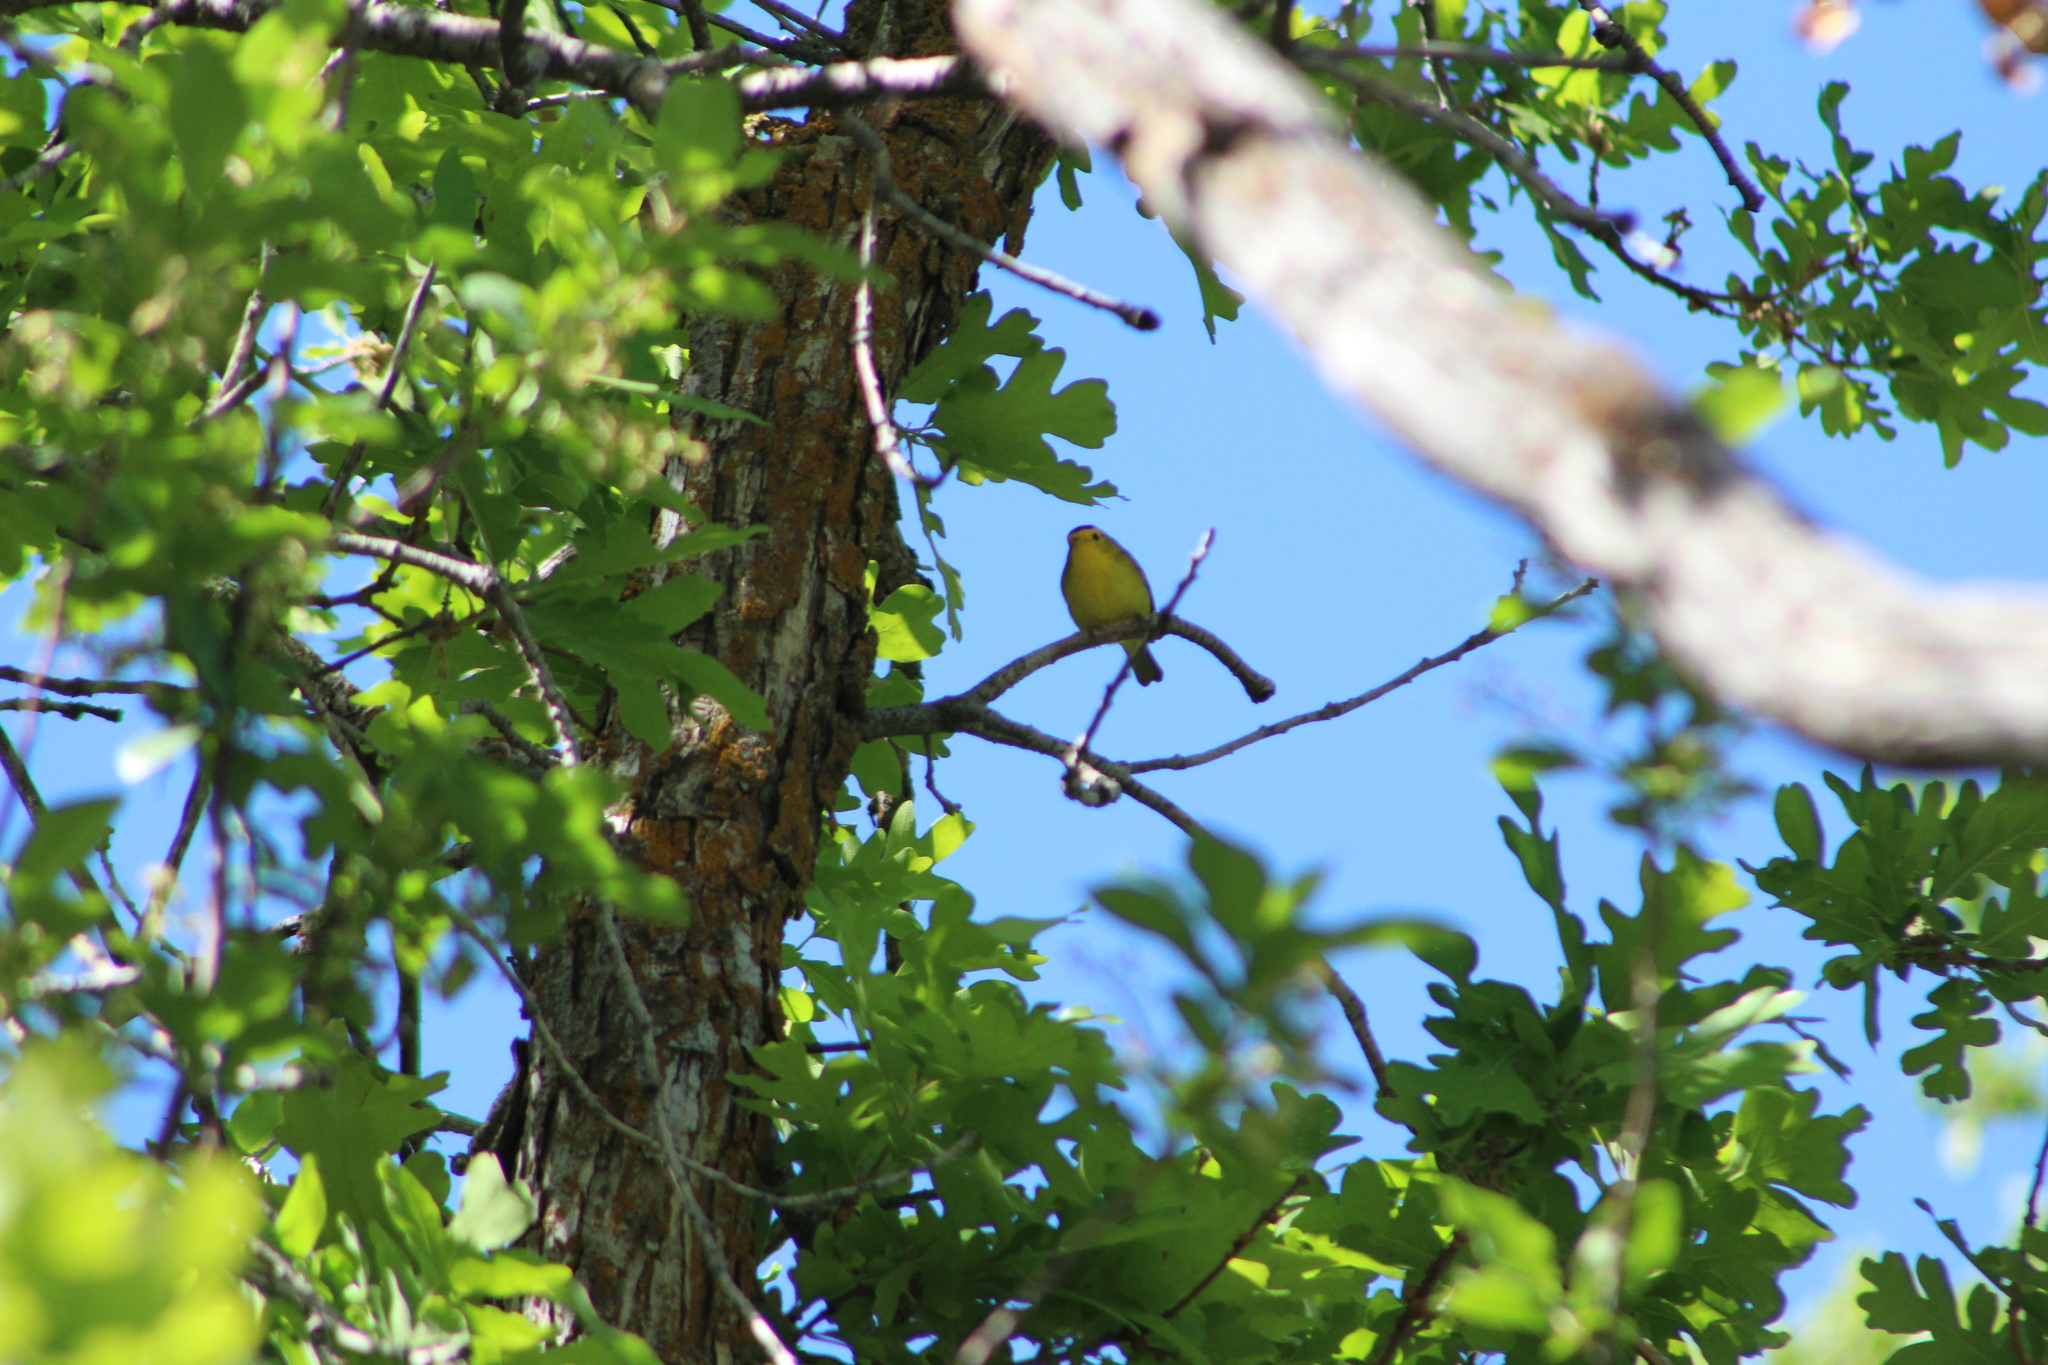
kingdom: Animalia
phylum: Chordata
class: Aves
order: Passeriformes
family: Parulidae
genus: Cardellina
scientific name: Cardellina pusilla
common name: Wilson's warbler
